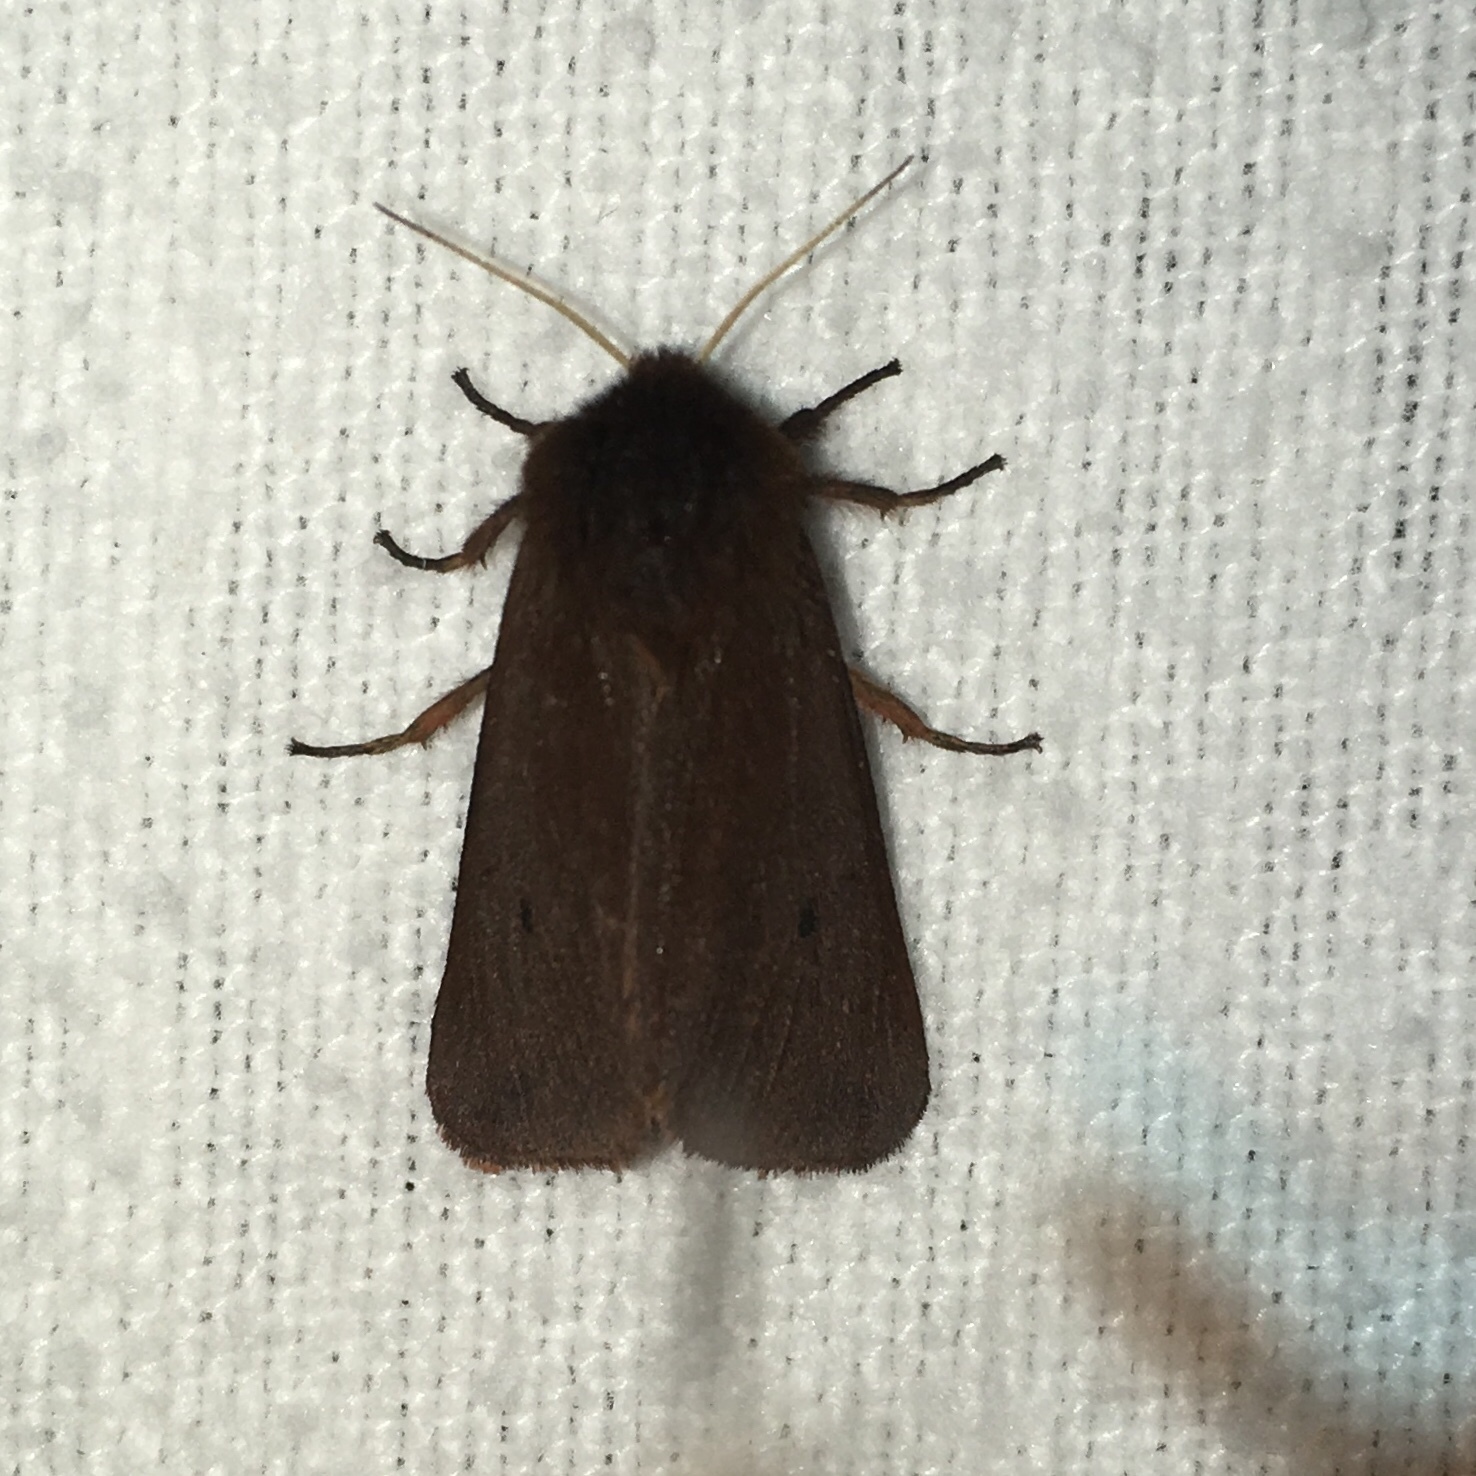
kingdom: Animalia
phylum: Arthropoda
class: Insecta
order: Lepidoptera
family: Erebidae
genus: Phragmatobia
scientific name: Phragmatobia fuliginosa
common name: Ruby tiger
